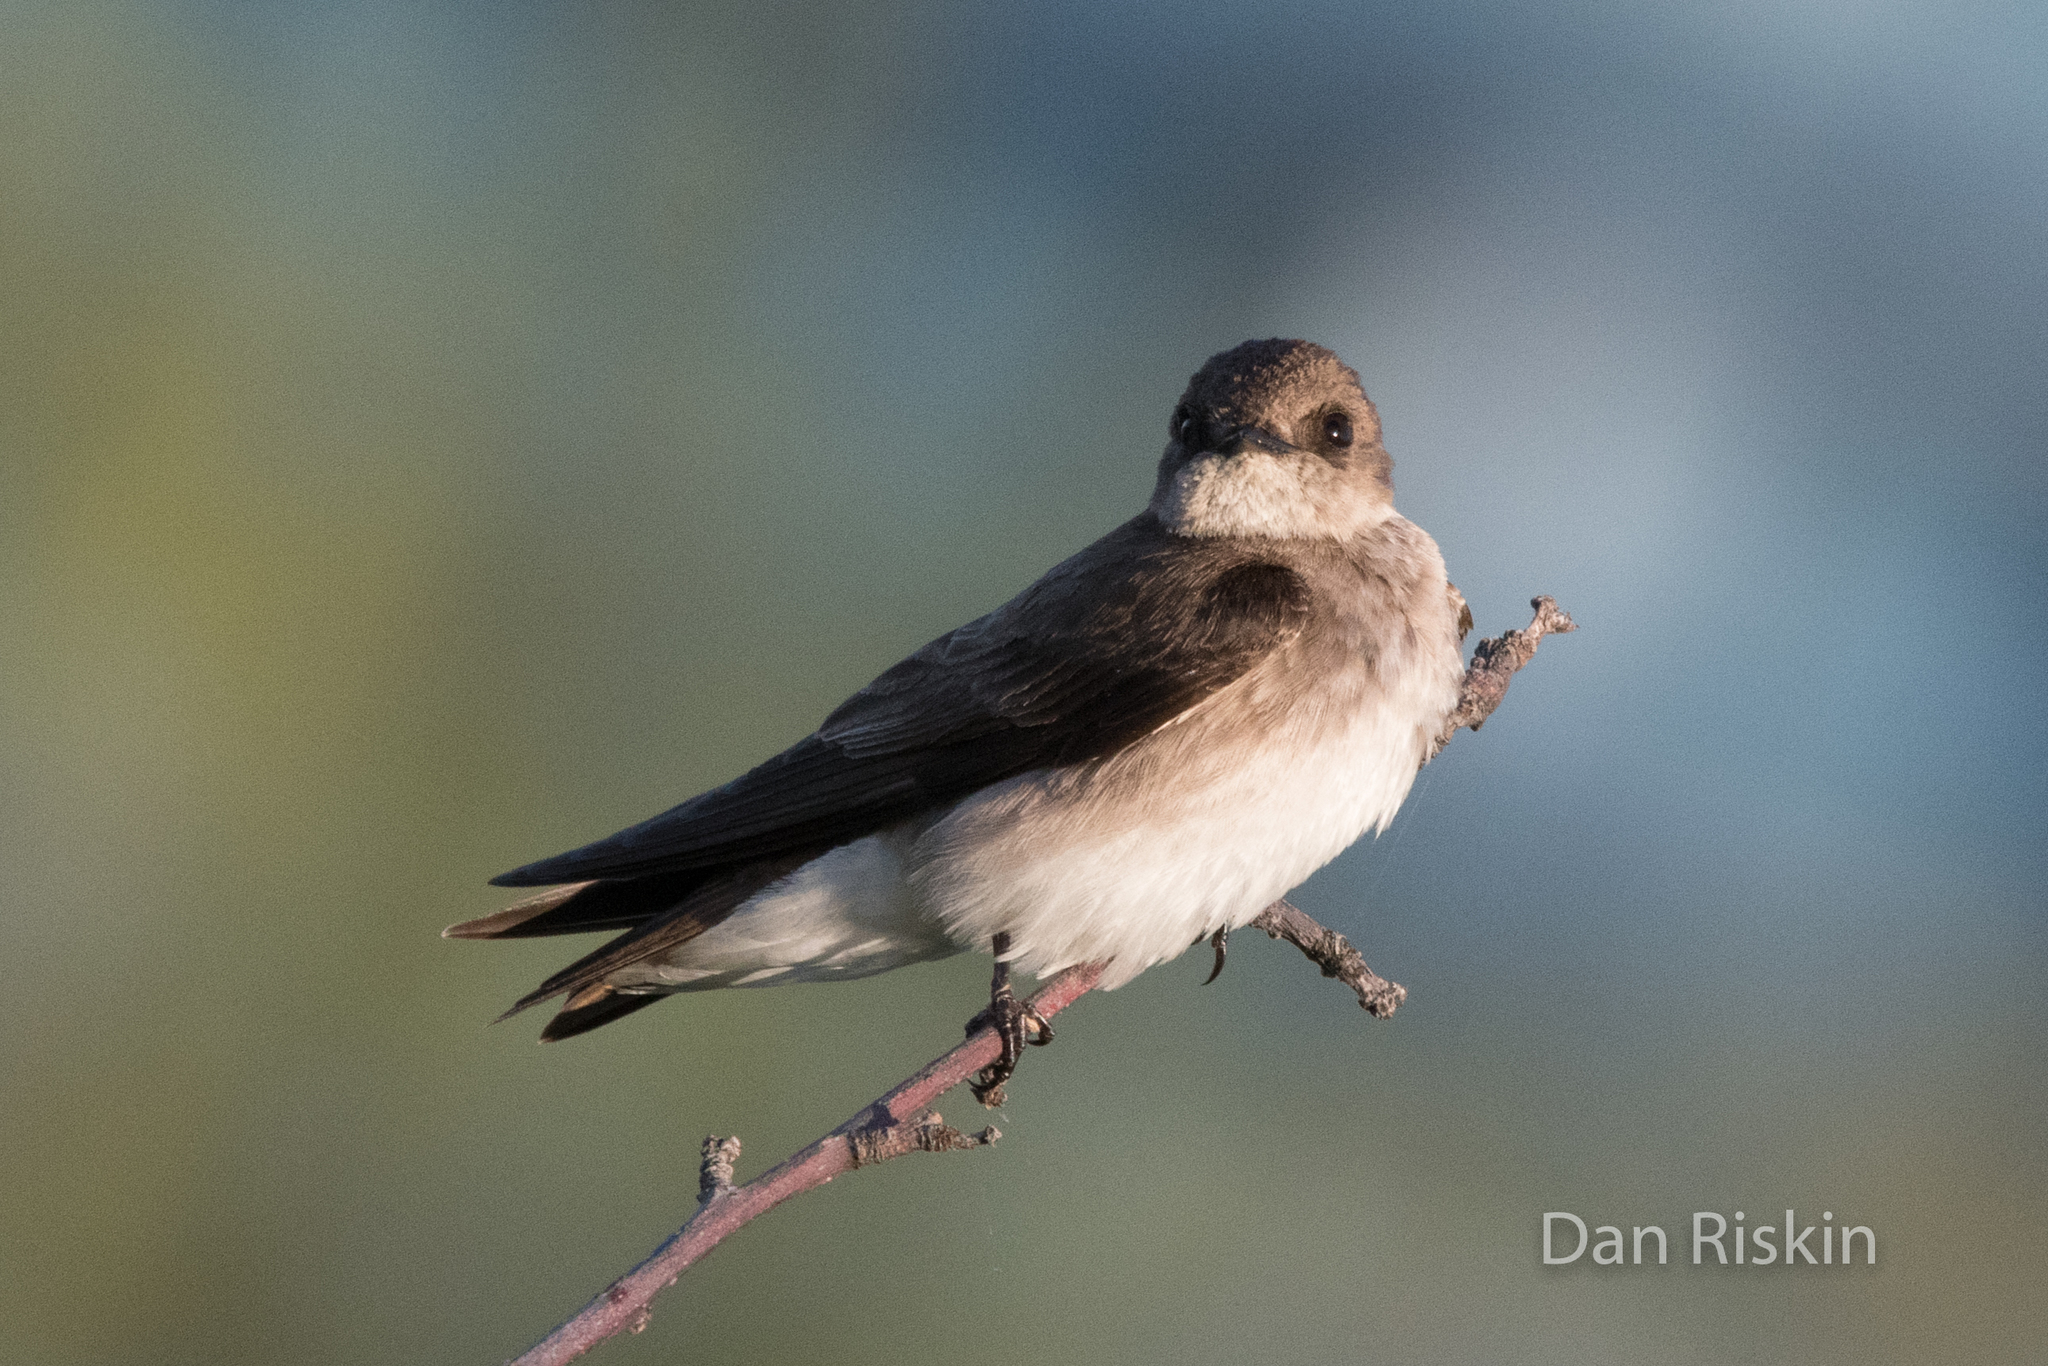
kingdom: Animalia
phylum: Chordata
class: Aves
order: Passeriformes
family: Hirundinidae
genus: Stelgidopteryx
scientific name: Stelgidopteryx serripennis
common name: Northern rough-winged swallow
